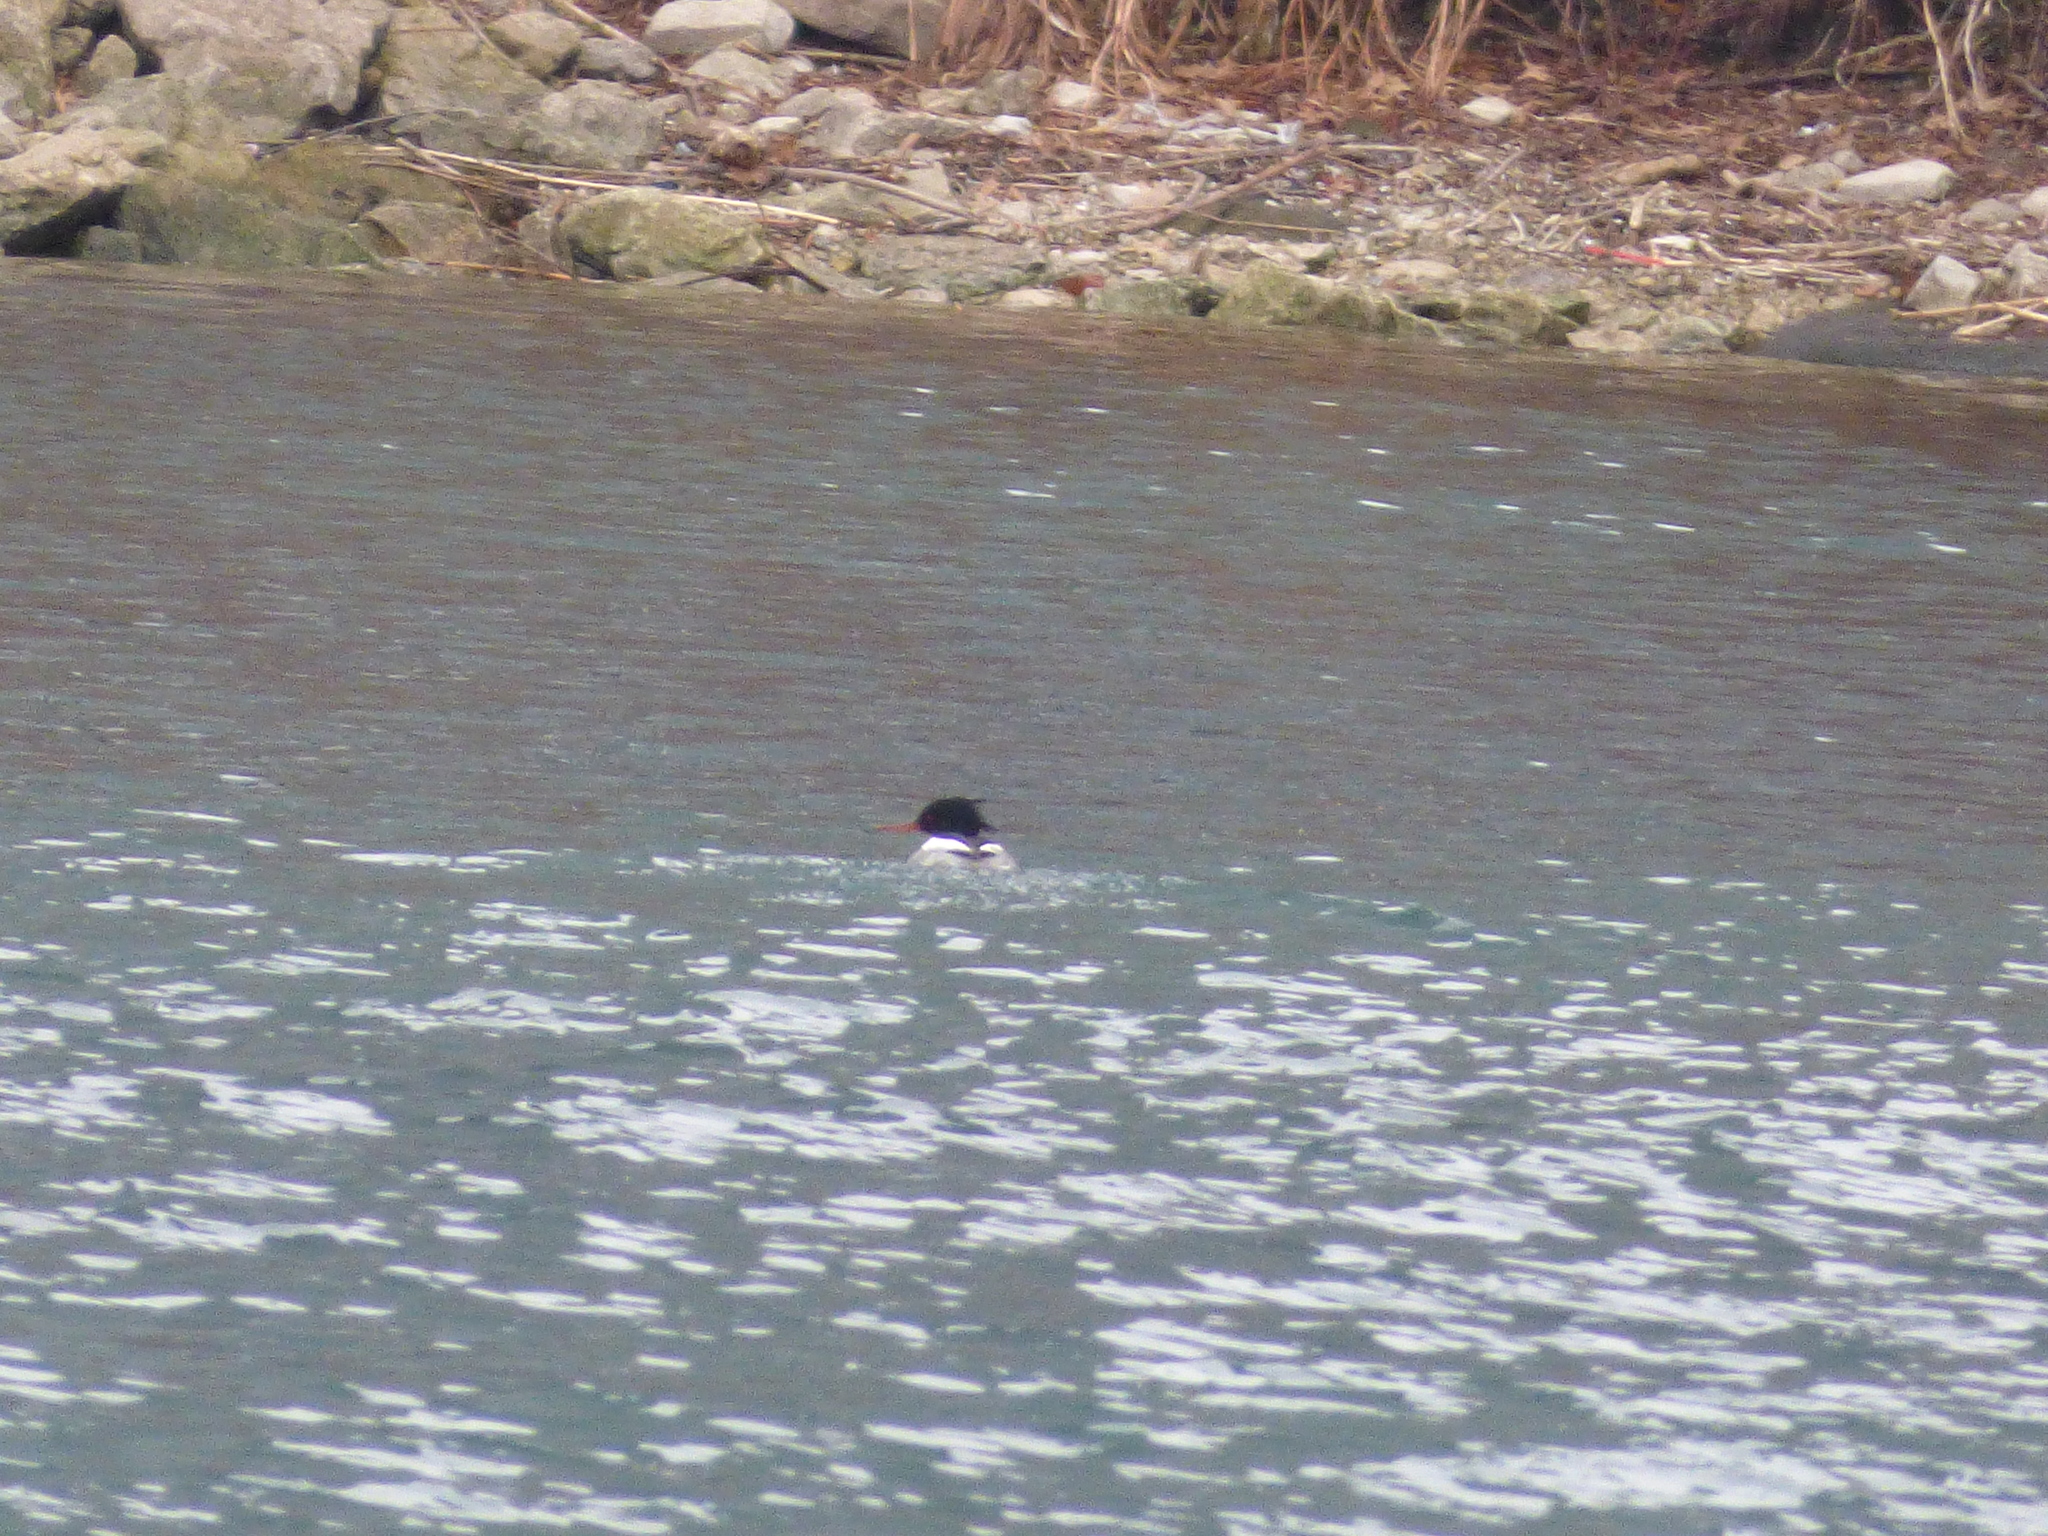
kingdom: Animalia
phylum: Chordata
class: Aves
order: Anseriformes
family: Anatidae
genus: Mergus
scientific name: Mergus serrator
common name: Red-breasted merganser
